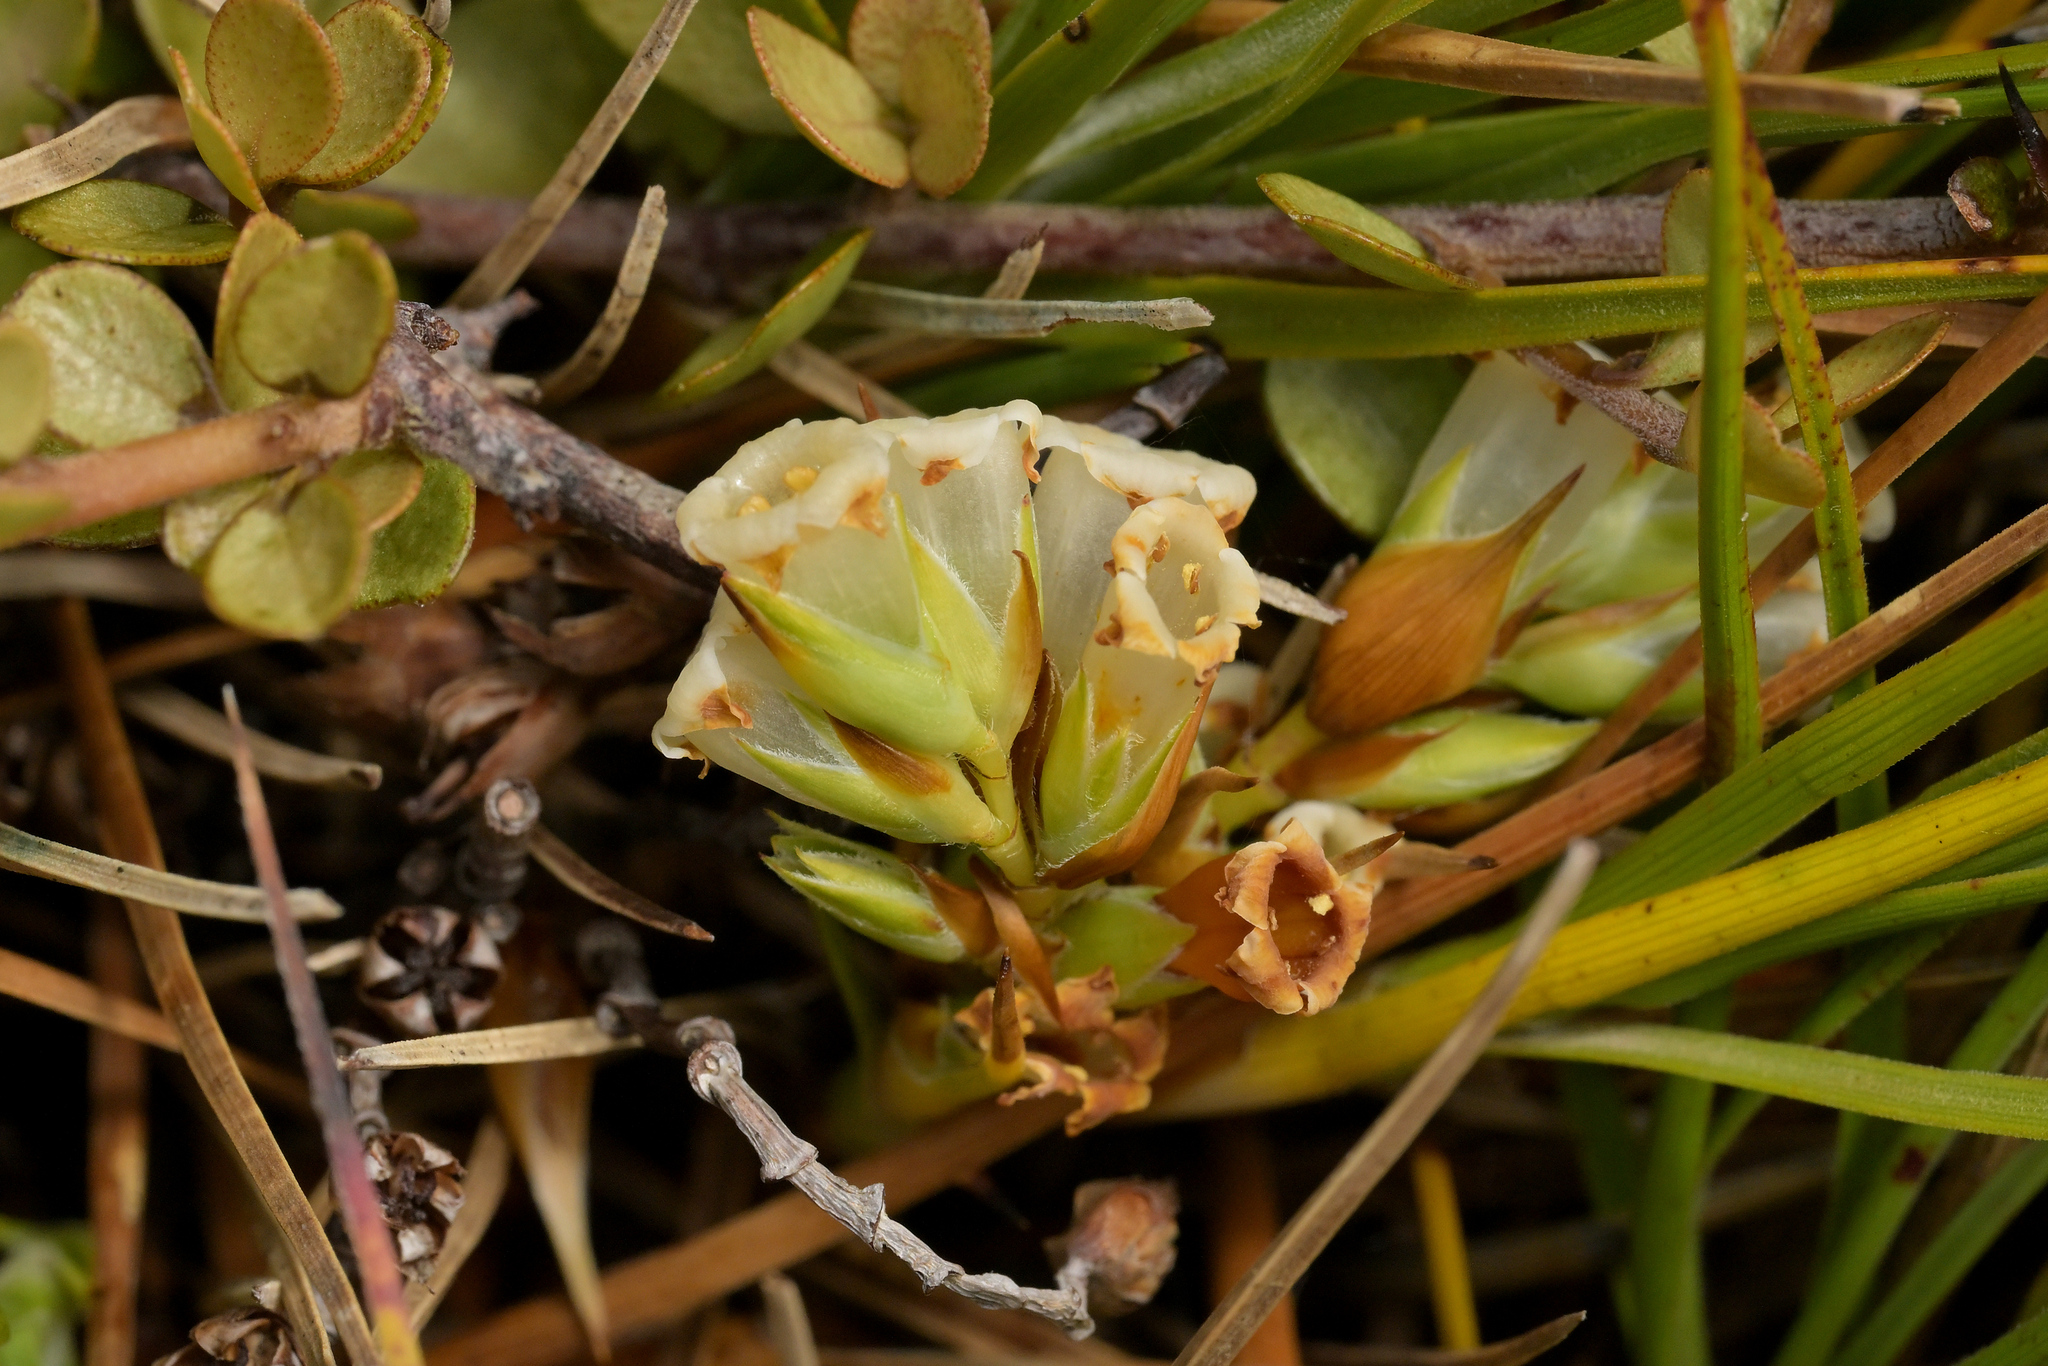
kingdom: Plantae
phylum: Tracheophyta
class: Magnoliopsida
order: Ericales
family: Ericaceae
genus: Dracophyllum
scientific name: Dracophyllum longifolium
